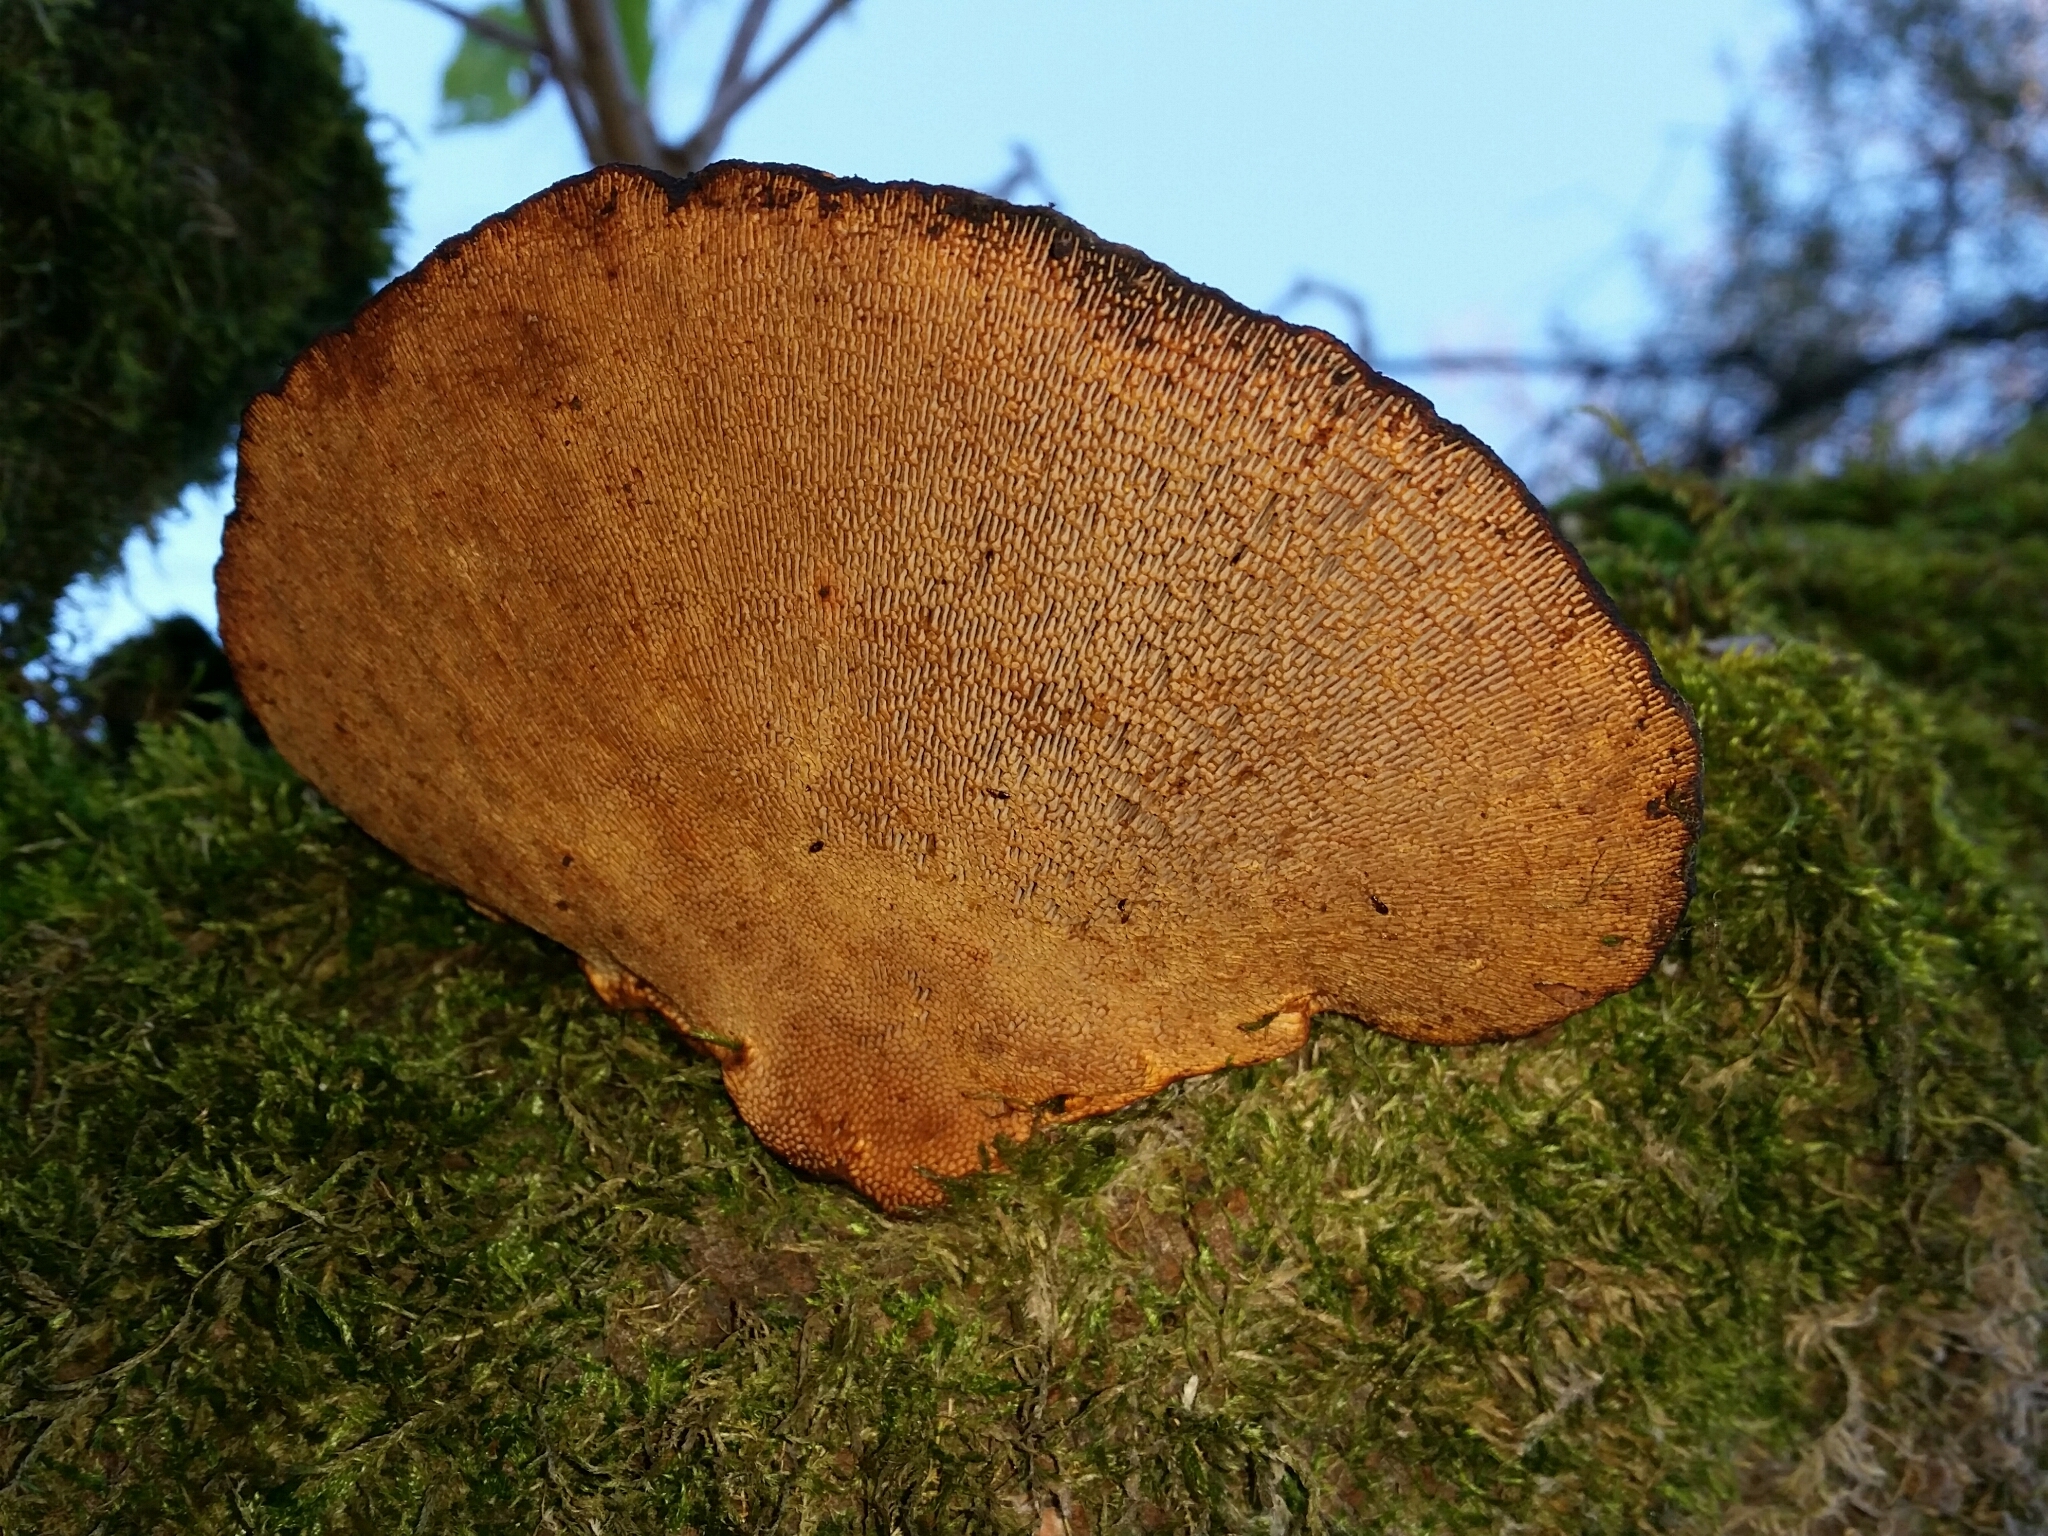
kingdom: Fungi
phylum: Basidiomycota
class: Agaricomycetes
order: Polyporales
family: Polyporaceae
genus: Daedaleopsis
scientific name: Daedaleopsis tricolor
